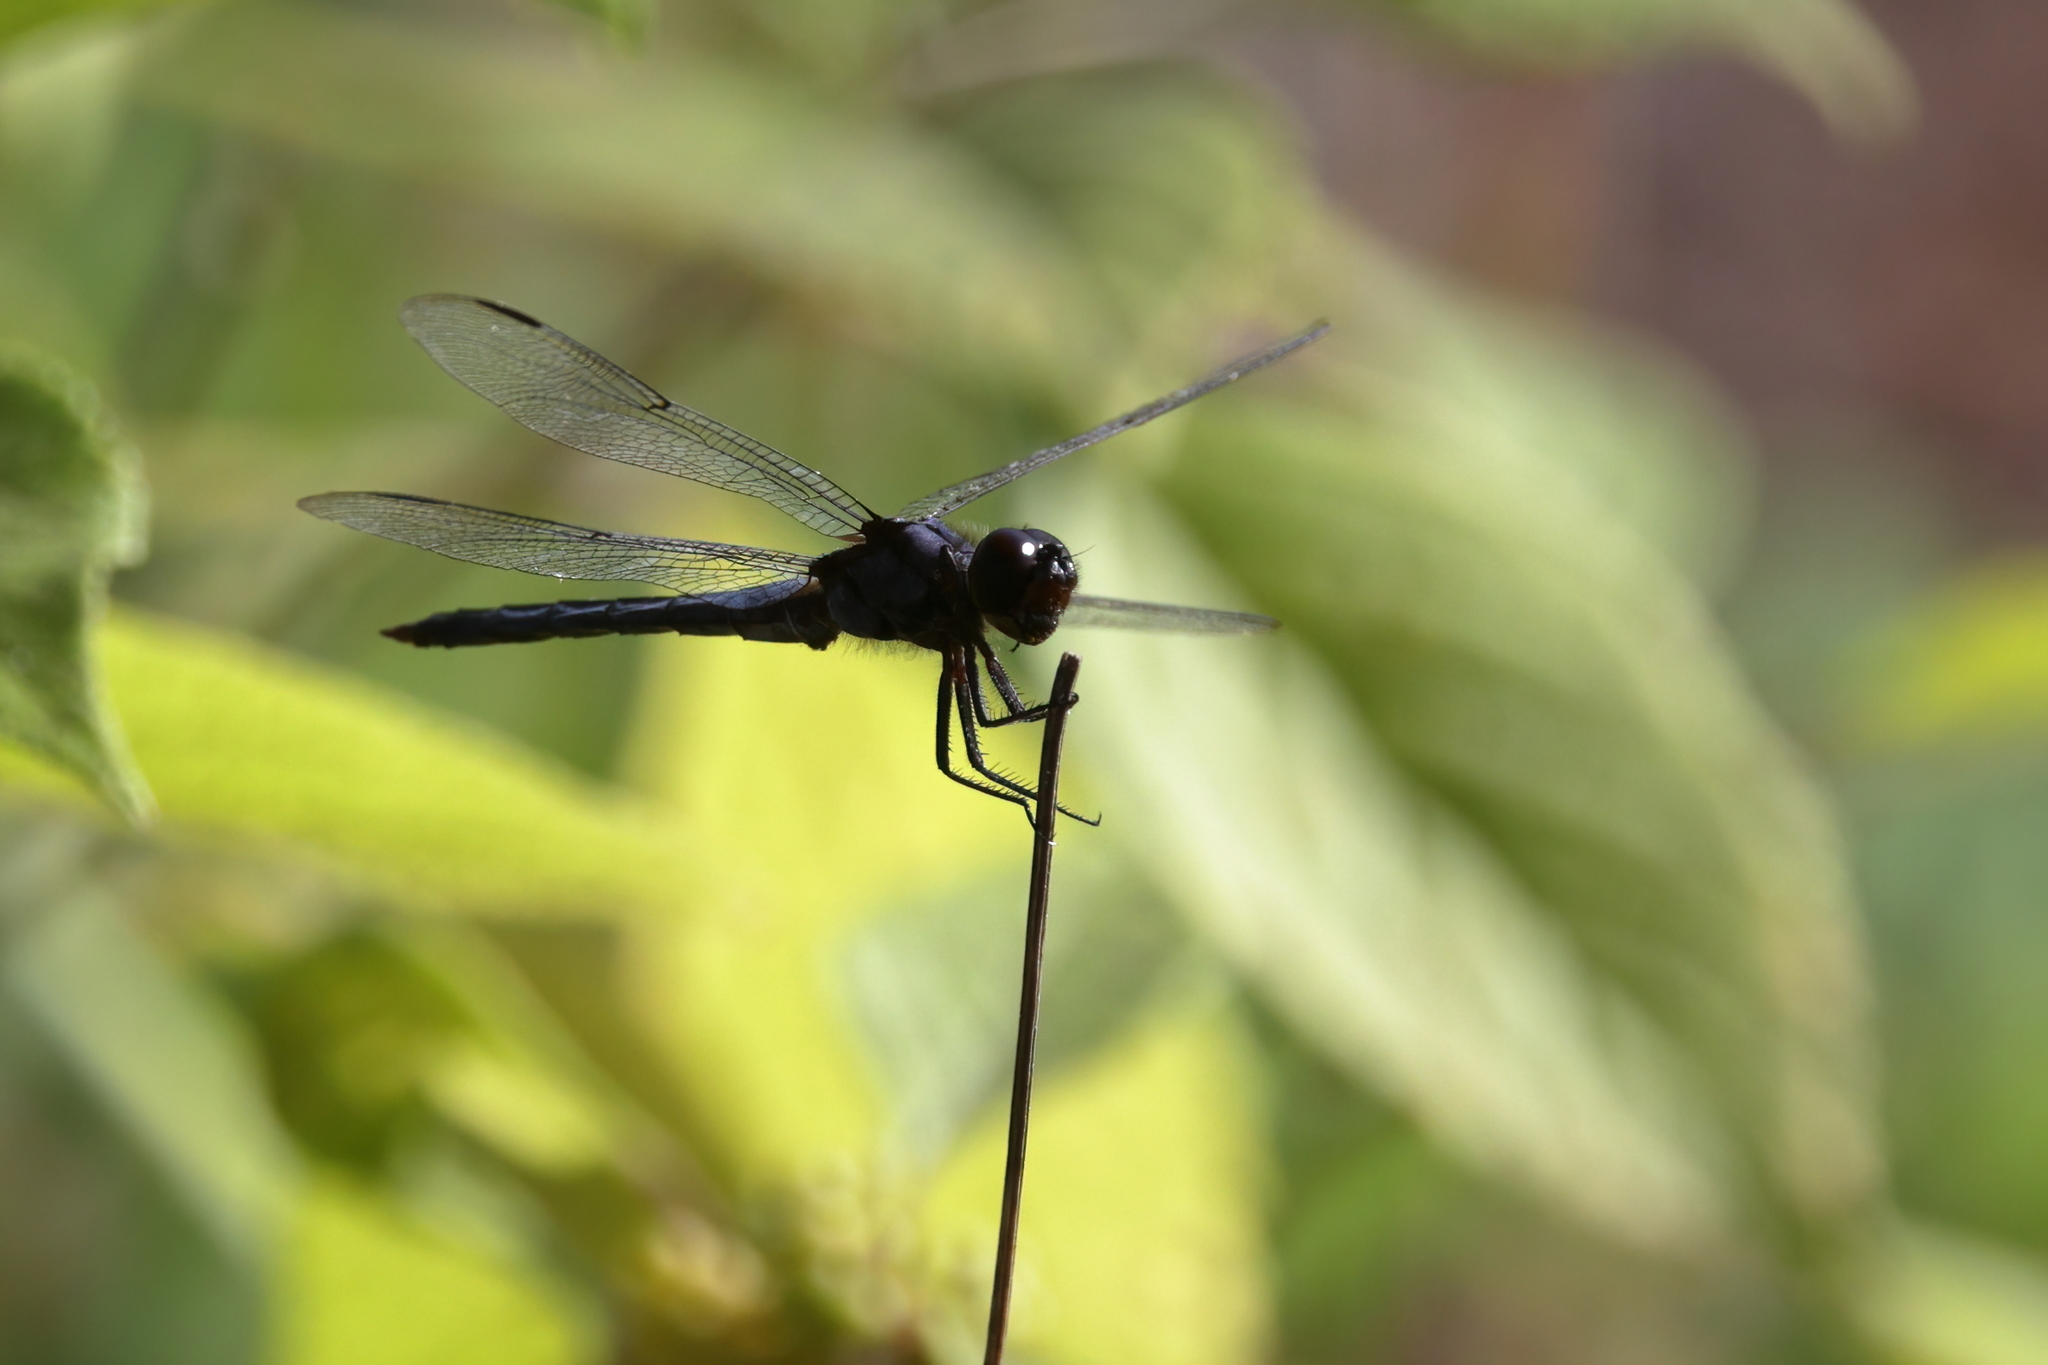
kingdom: Animalia
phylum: Arthropoda
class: Insecta
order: Odonata
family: Libellulidae
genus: Libellula
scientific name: Libellula incesta
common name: Slaty skimmer
